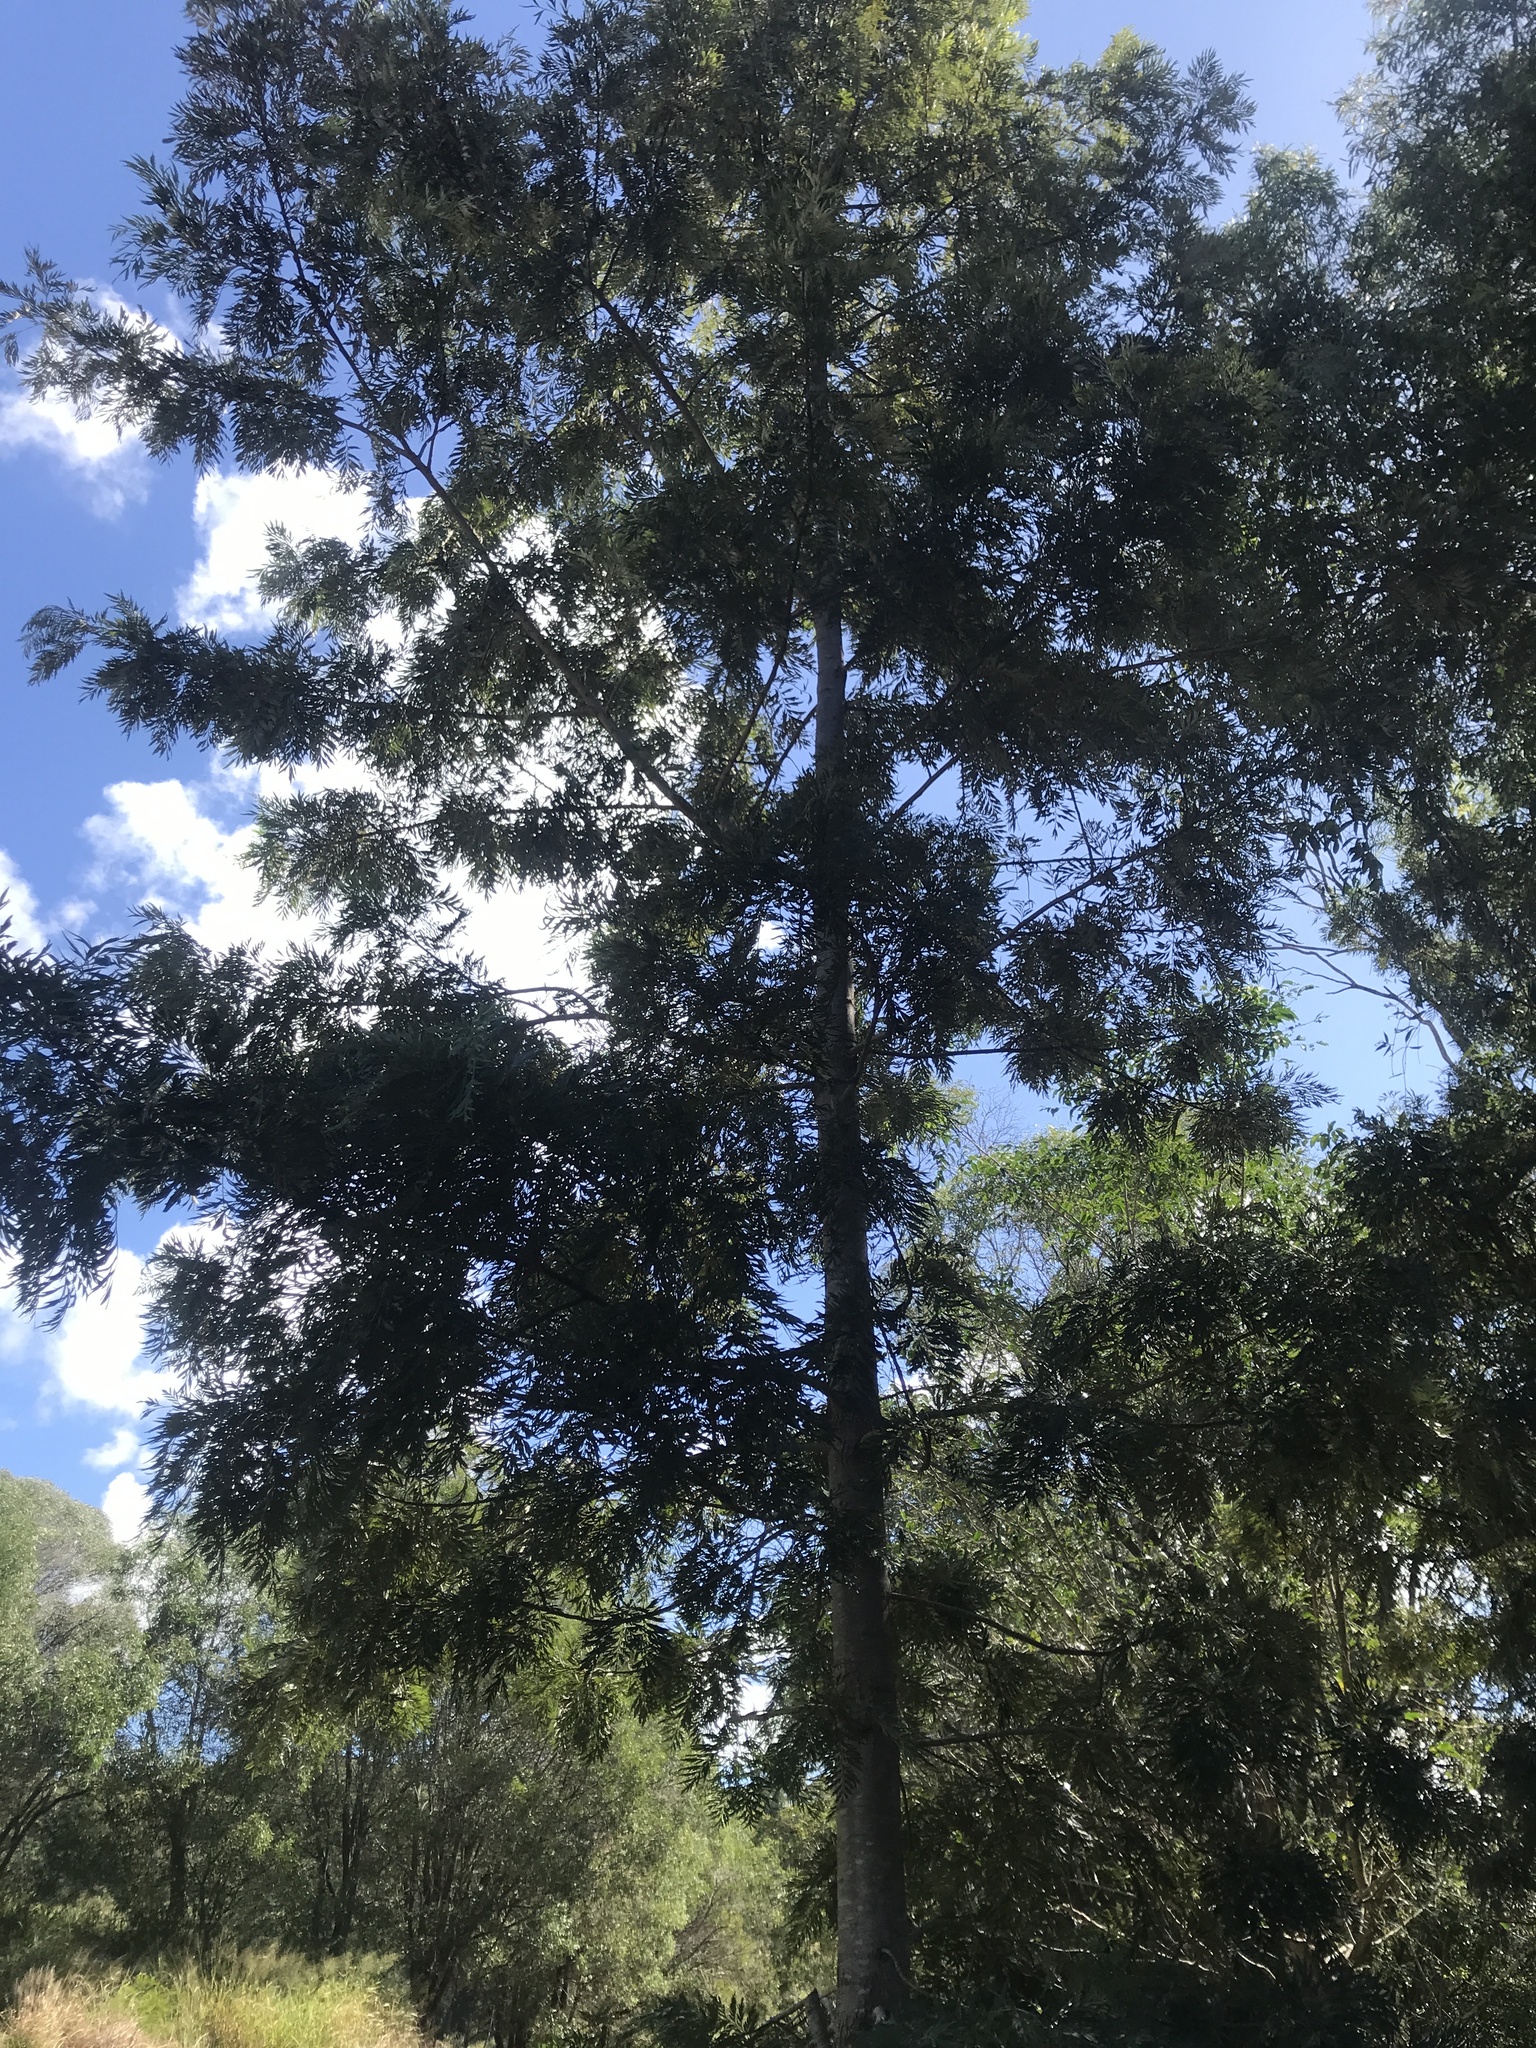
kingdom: Plantae
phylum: Tracheophyta
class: Magnoliopsida
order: Proteales
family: Proteaceae
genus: Grevillea
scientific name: Grevillea robusta
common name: Silkoak
